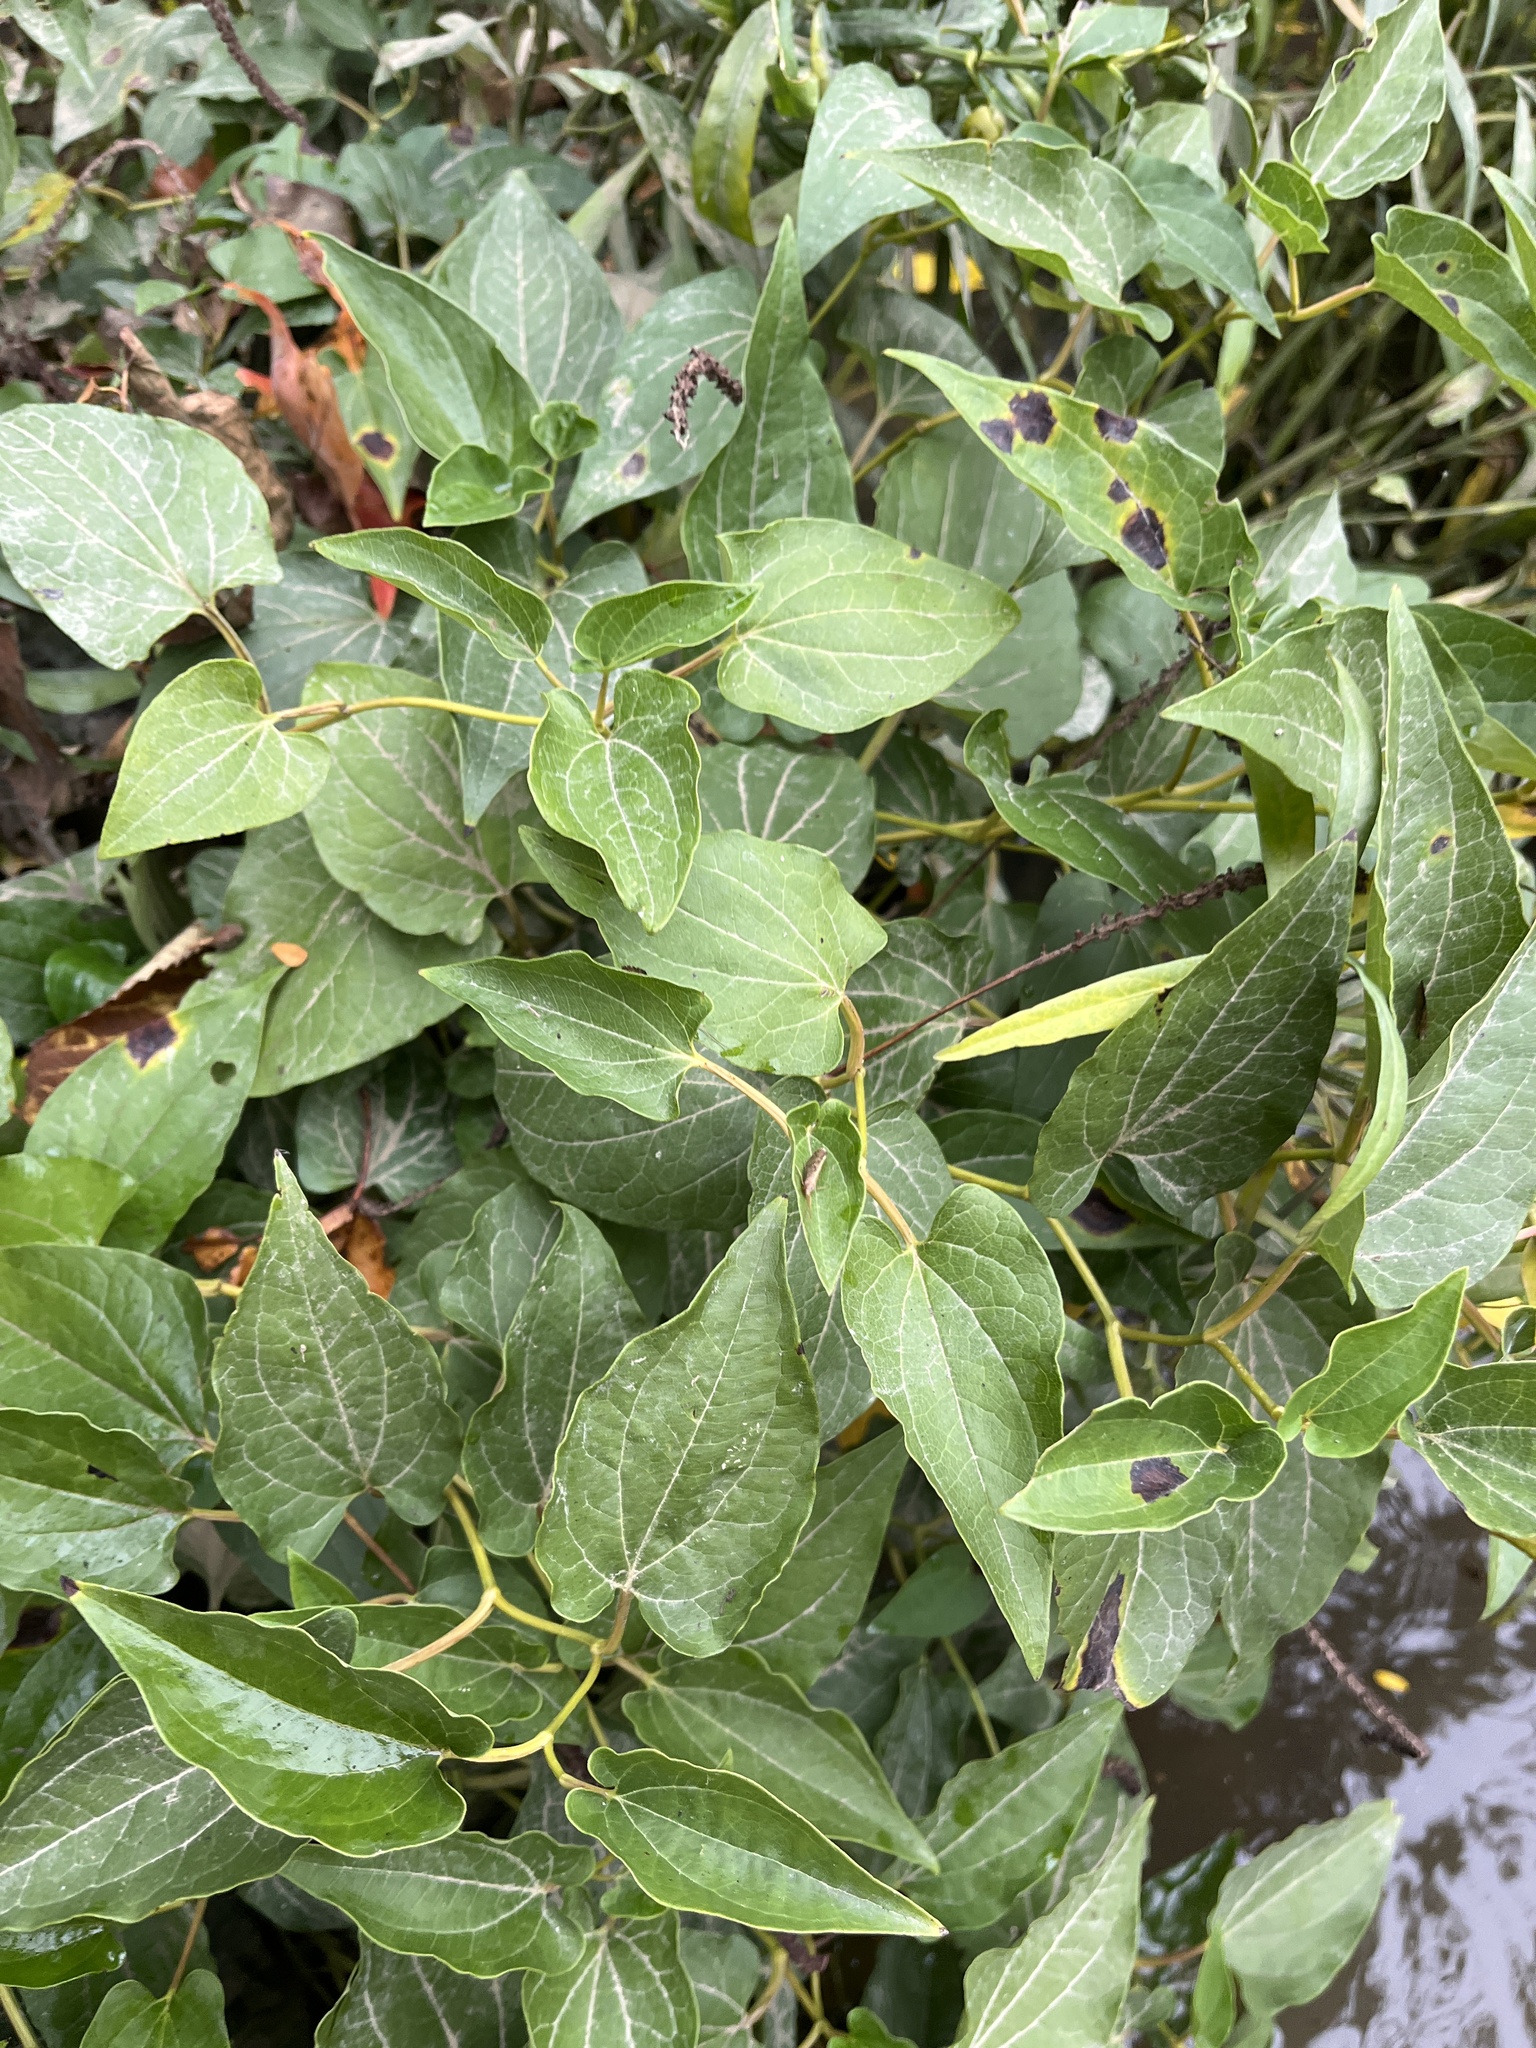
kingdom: Plantae
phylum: Tracheophyta
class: Magnoliopsida
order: Piperales
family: Saururaceae
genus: Saururus
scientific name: Saururus cernuus
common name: Lizard's-tail
